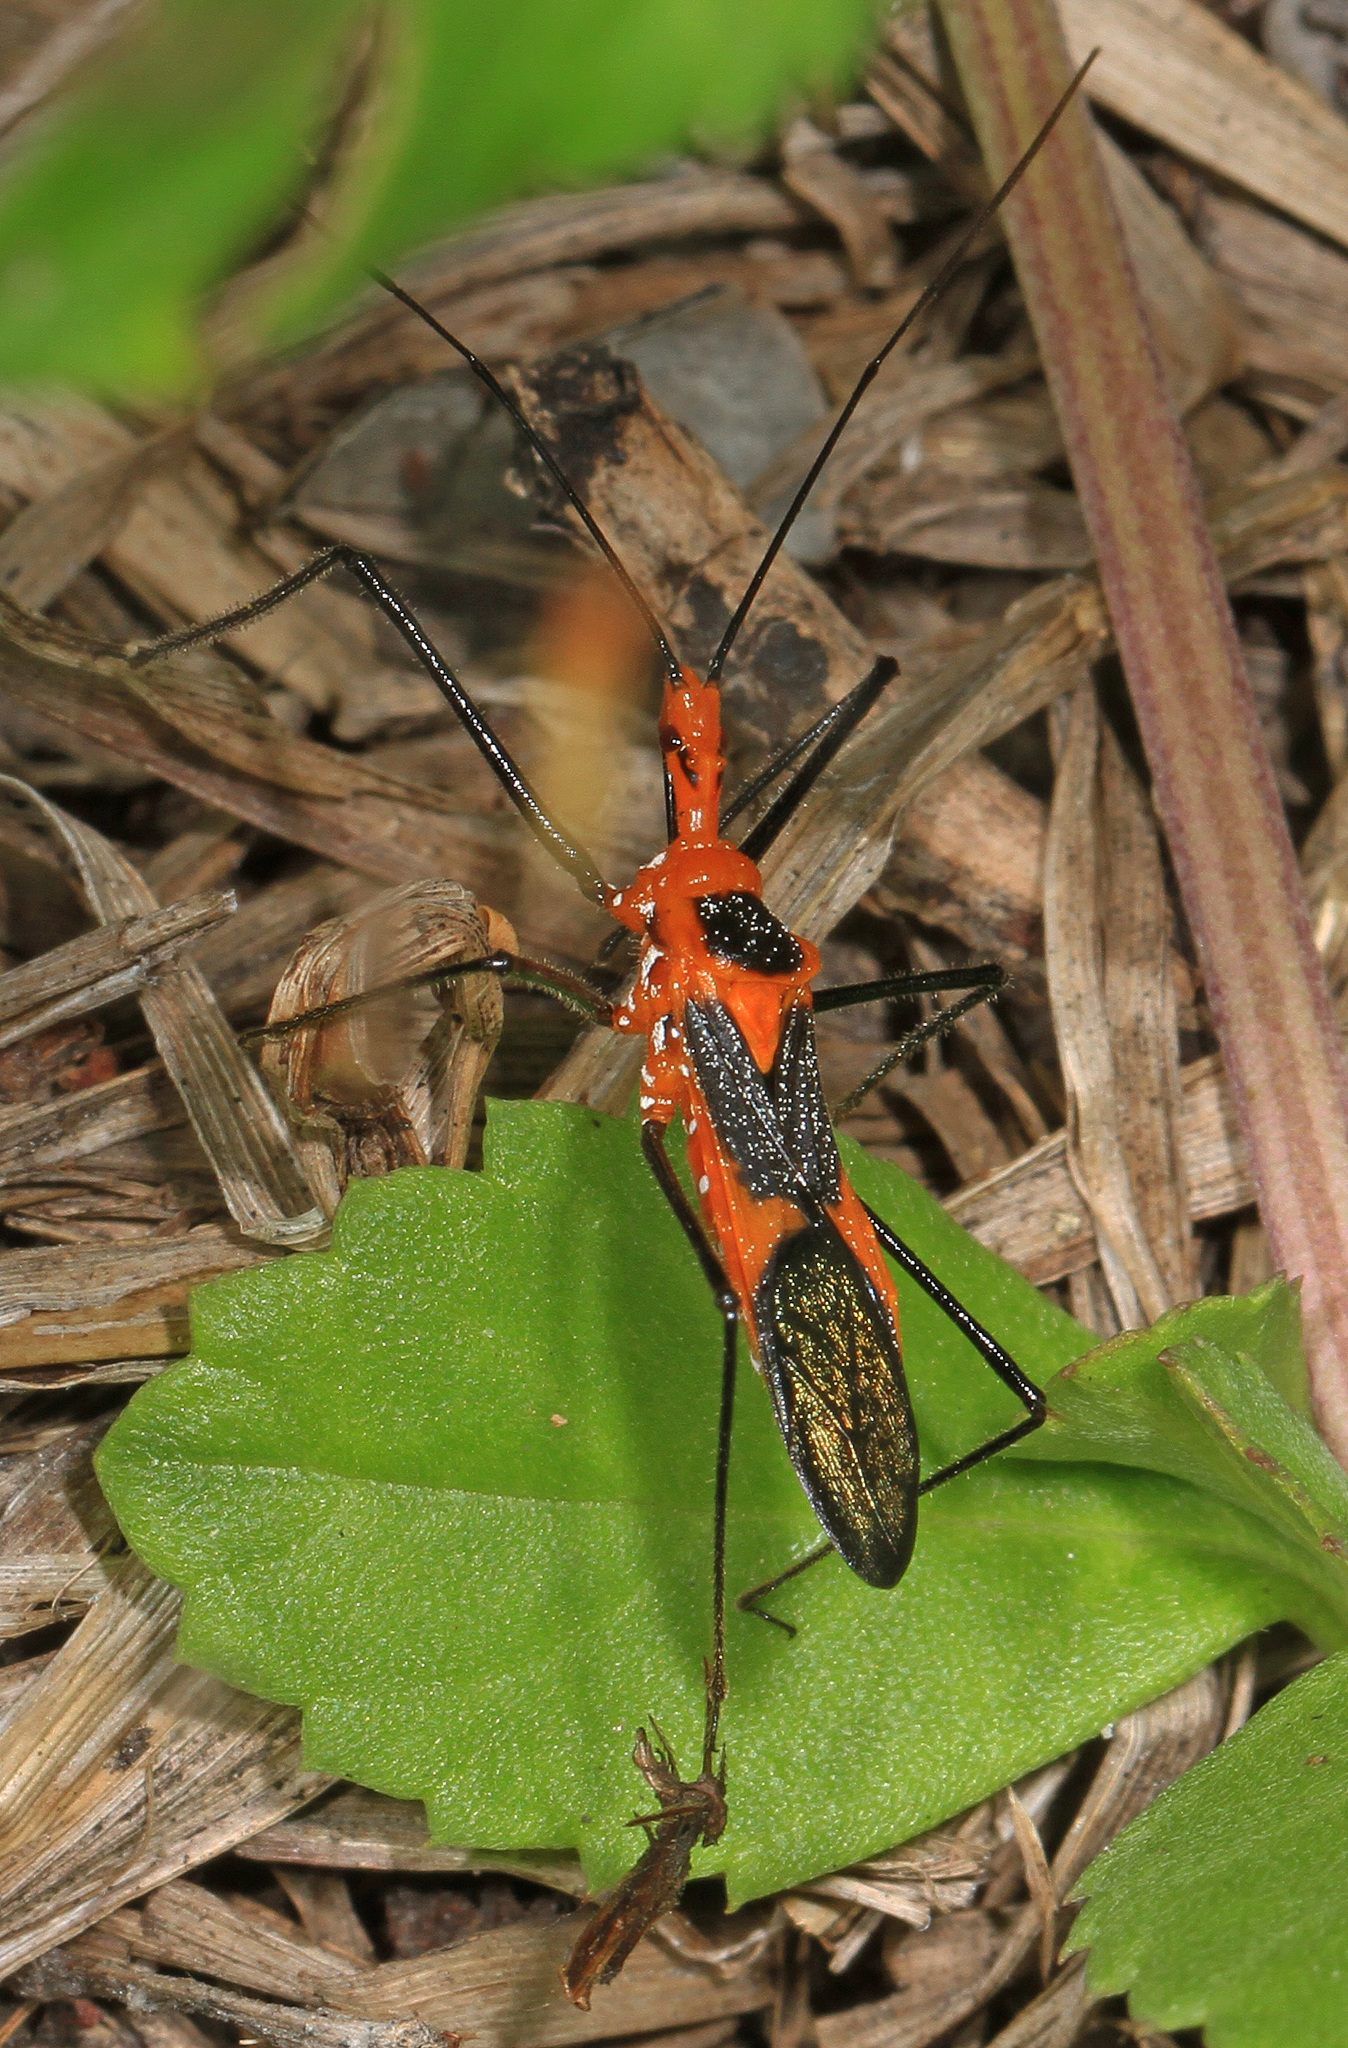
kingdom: Animalia
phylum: Arthropoda
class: Insecta
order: Hemiptera
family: Reduviidae
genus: Zelus
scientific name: Zelus longipes
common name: Milkweed assassin bug
